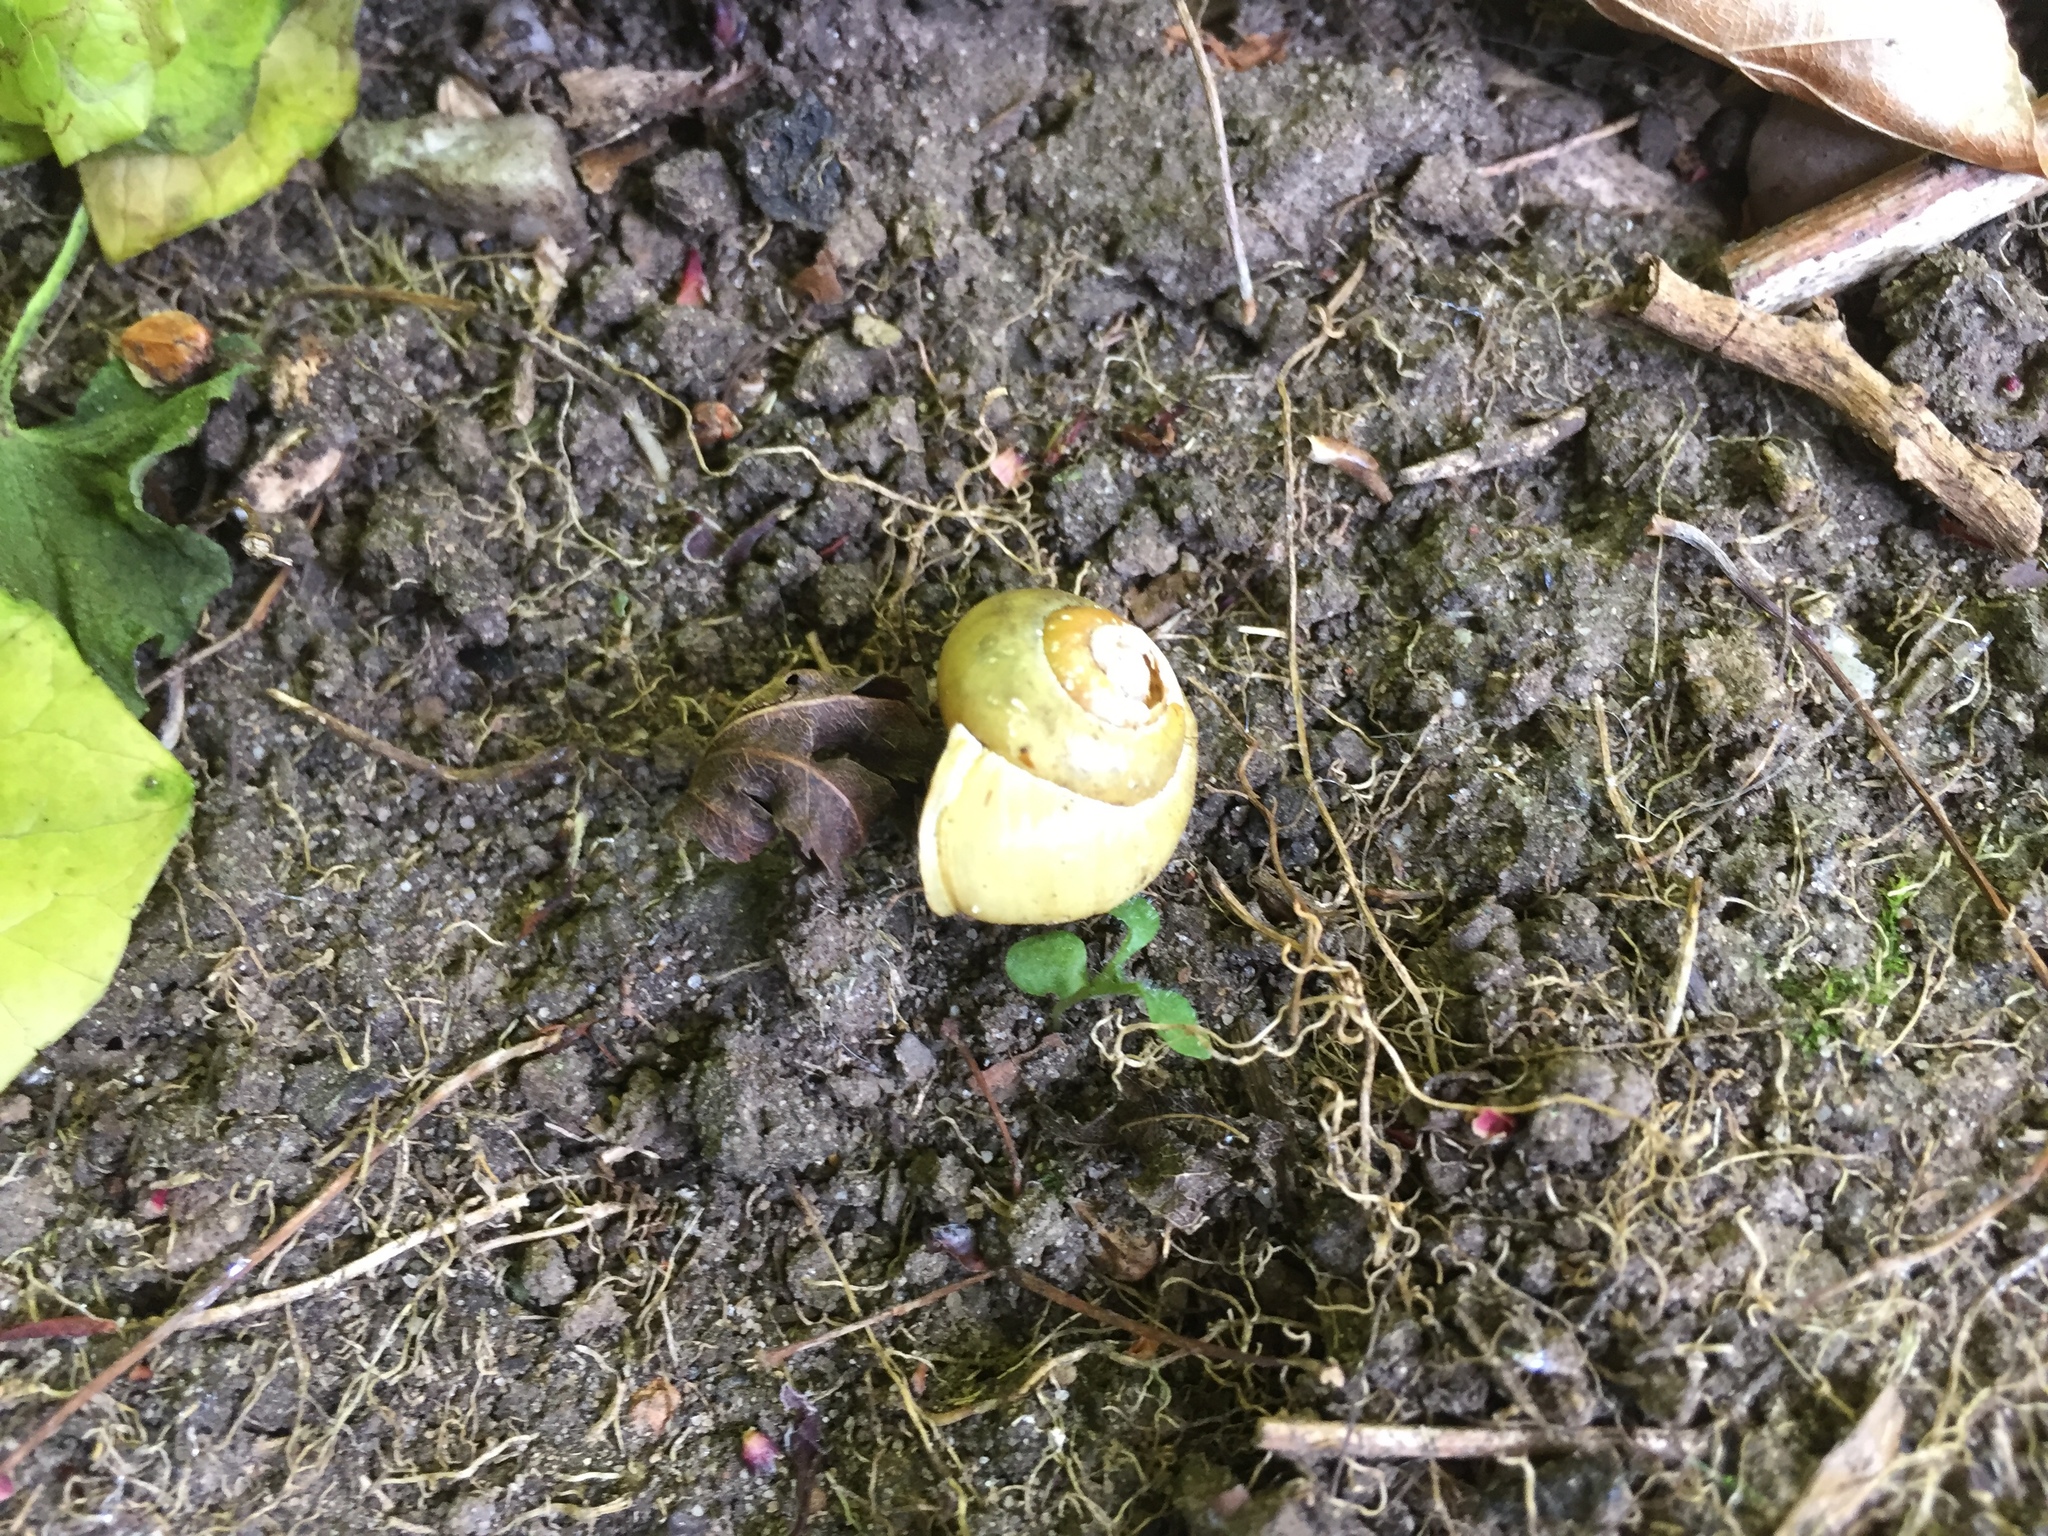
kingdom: Animalia
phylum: Mollusca
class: Gastropoda
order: Stylommatophora
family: Helicidae
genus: Cepaea
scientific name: Cepaea hortensis
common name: White-lip gardensnail
